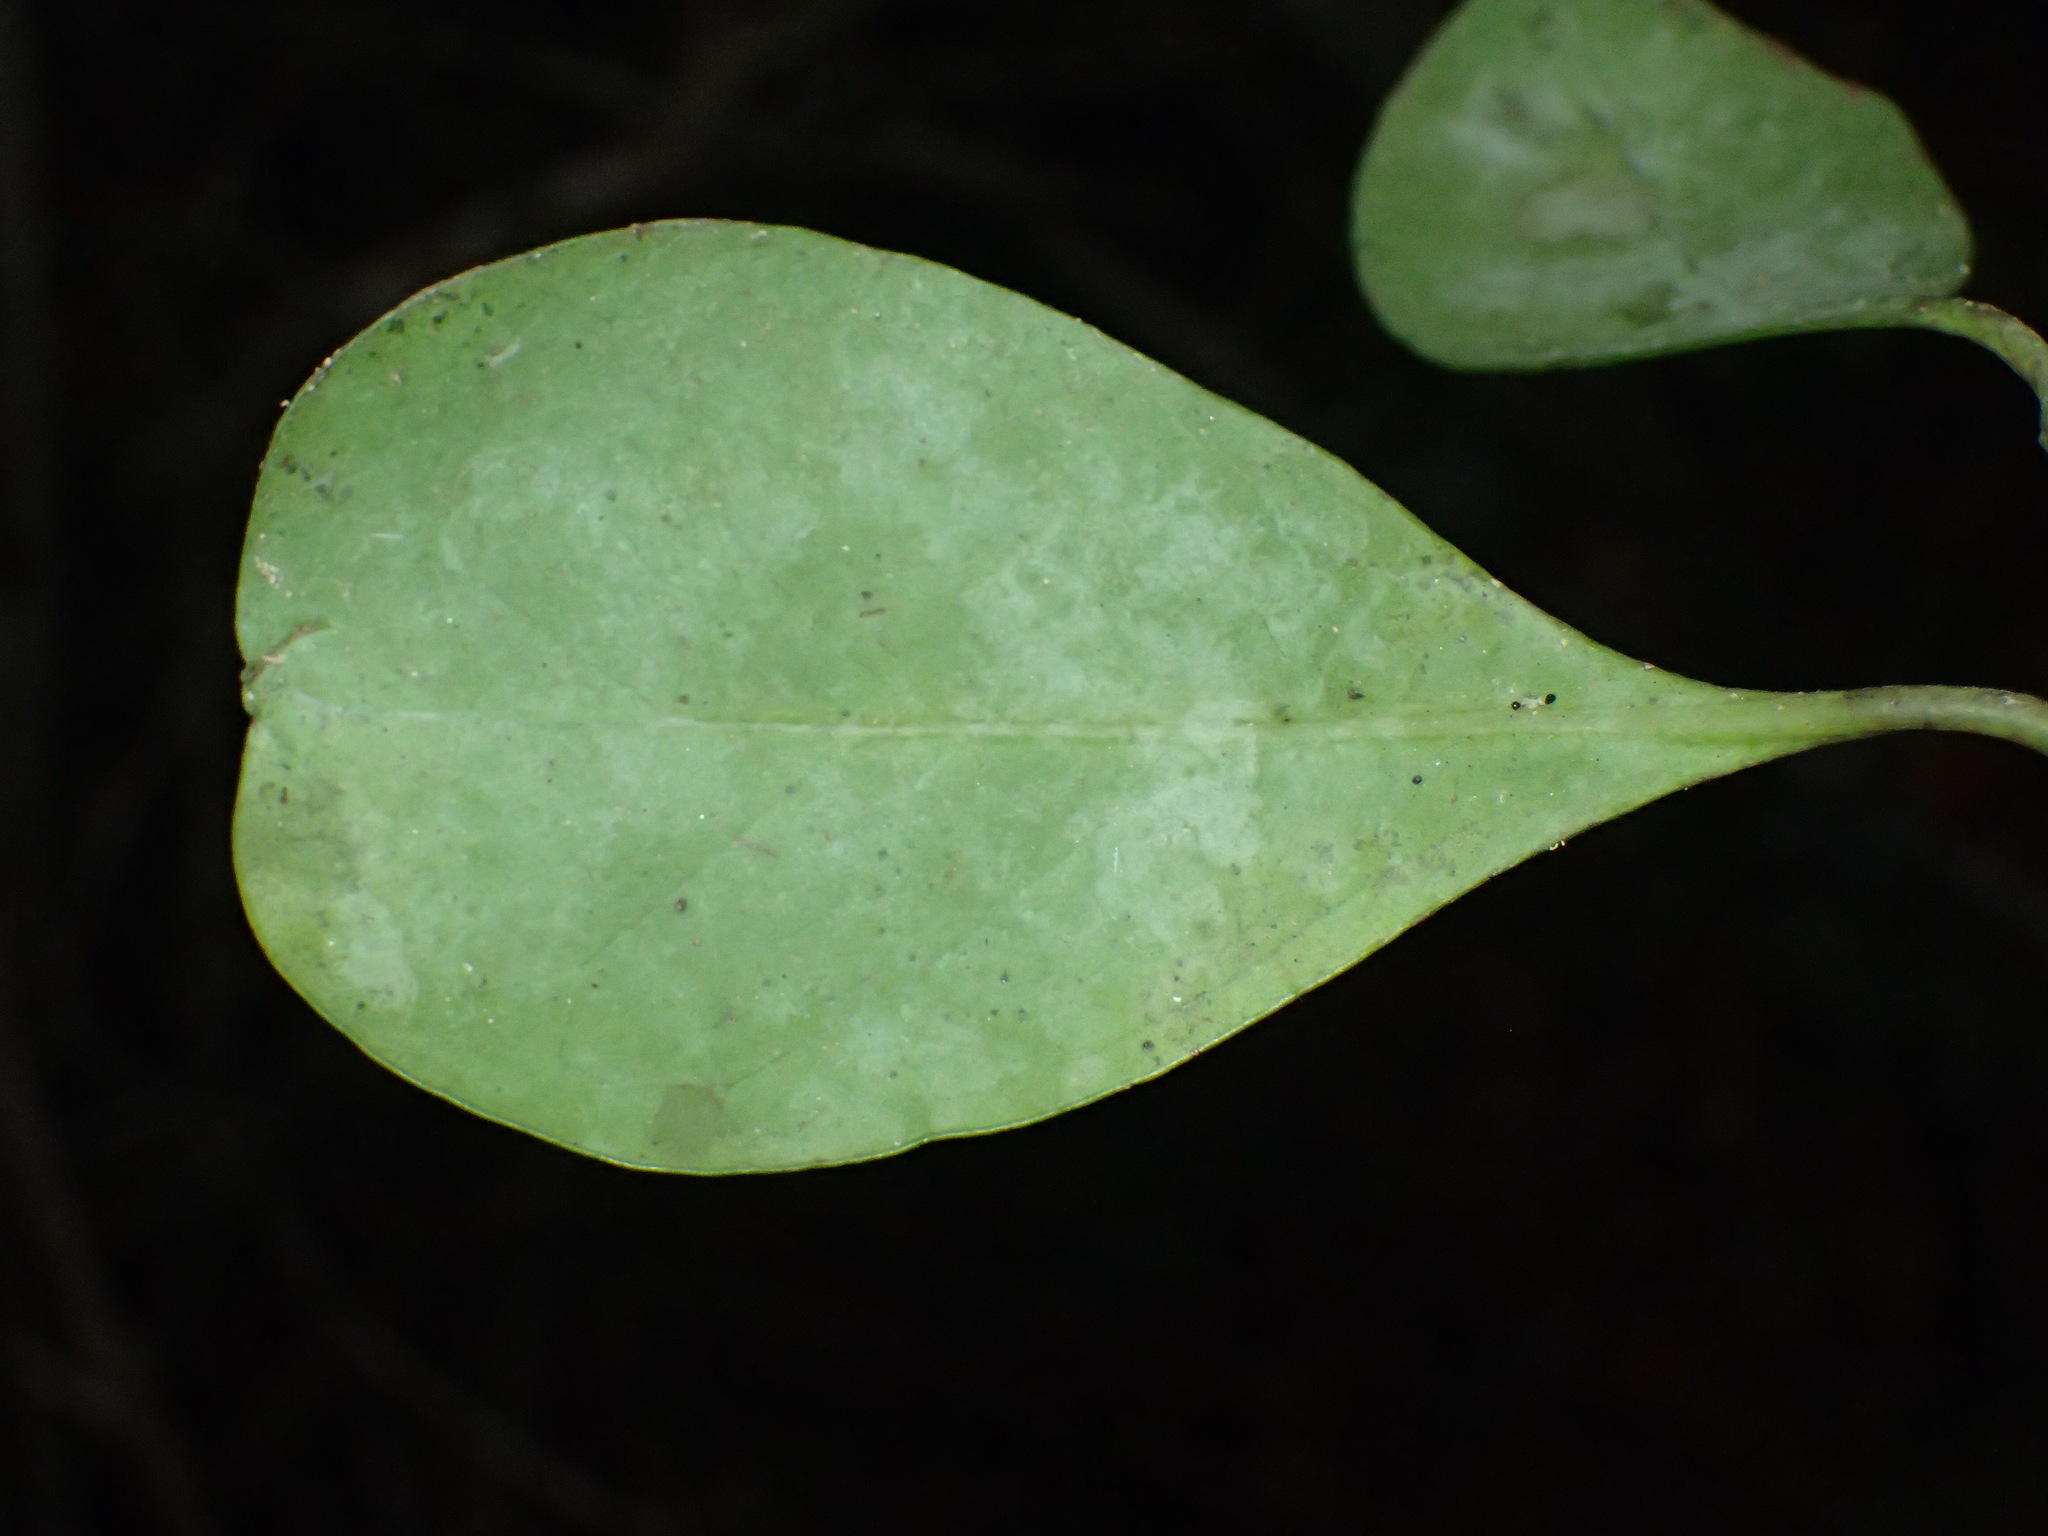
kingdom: Plantae
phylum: Tracheophyta
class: Magnoliopsida
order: Celastrales
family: Celastraceae
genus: Pterocelastrus
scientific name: Pterocelastrus tricuspidatus
